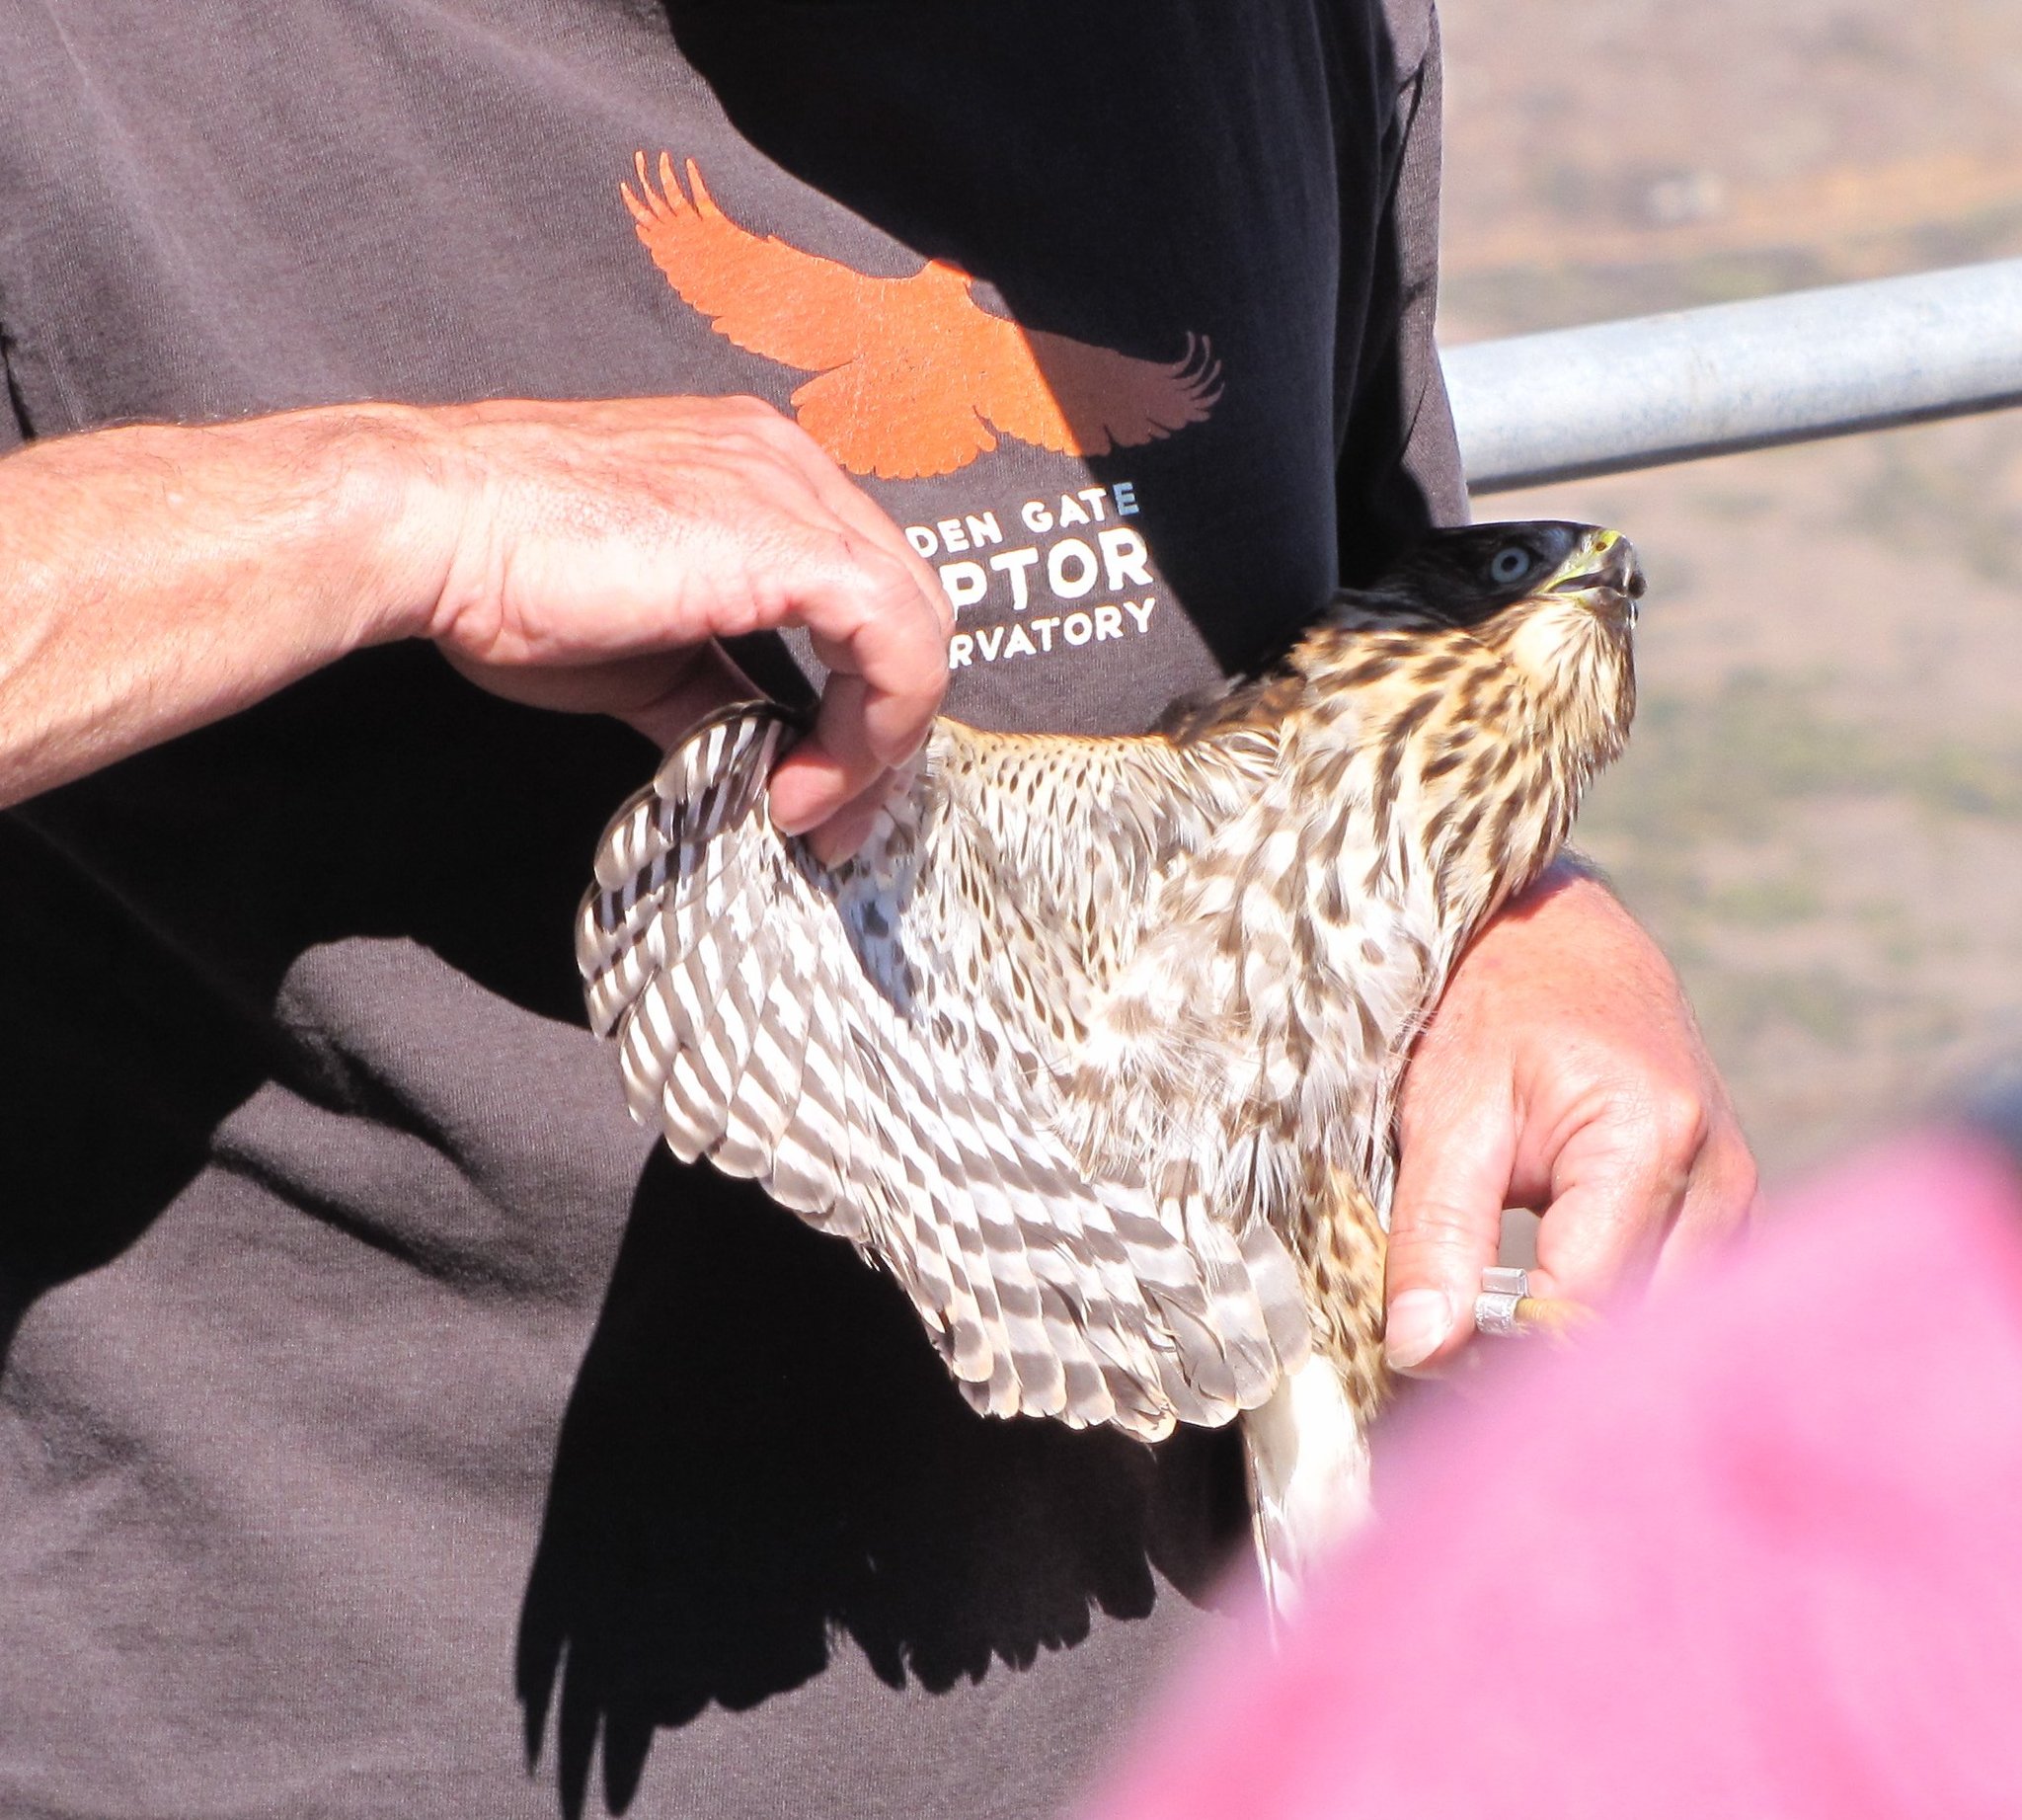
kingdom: Animalia
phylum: Chordata
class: Aves
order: Accipitriformes
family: Accipitridae
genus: Accipiter
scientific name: Accipiter cooperii
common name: Cooper's hawk
